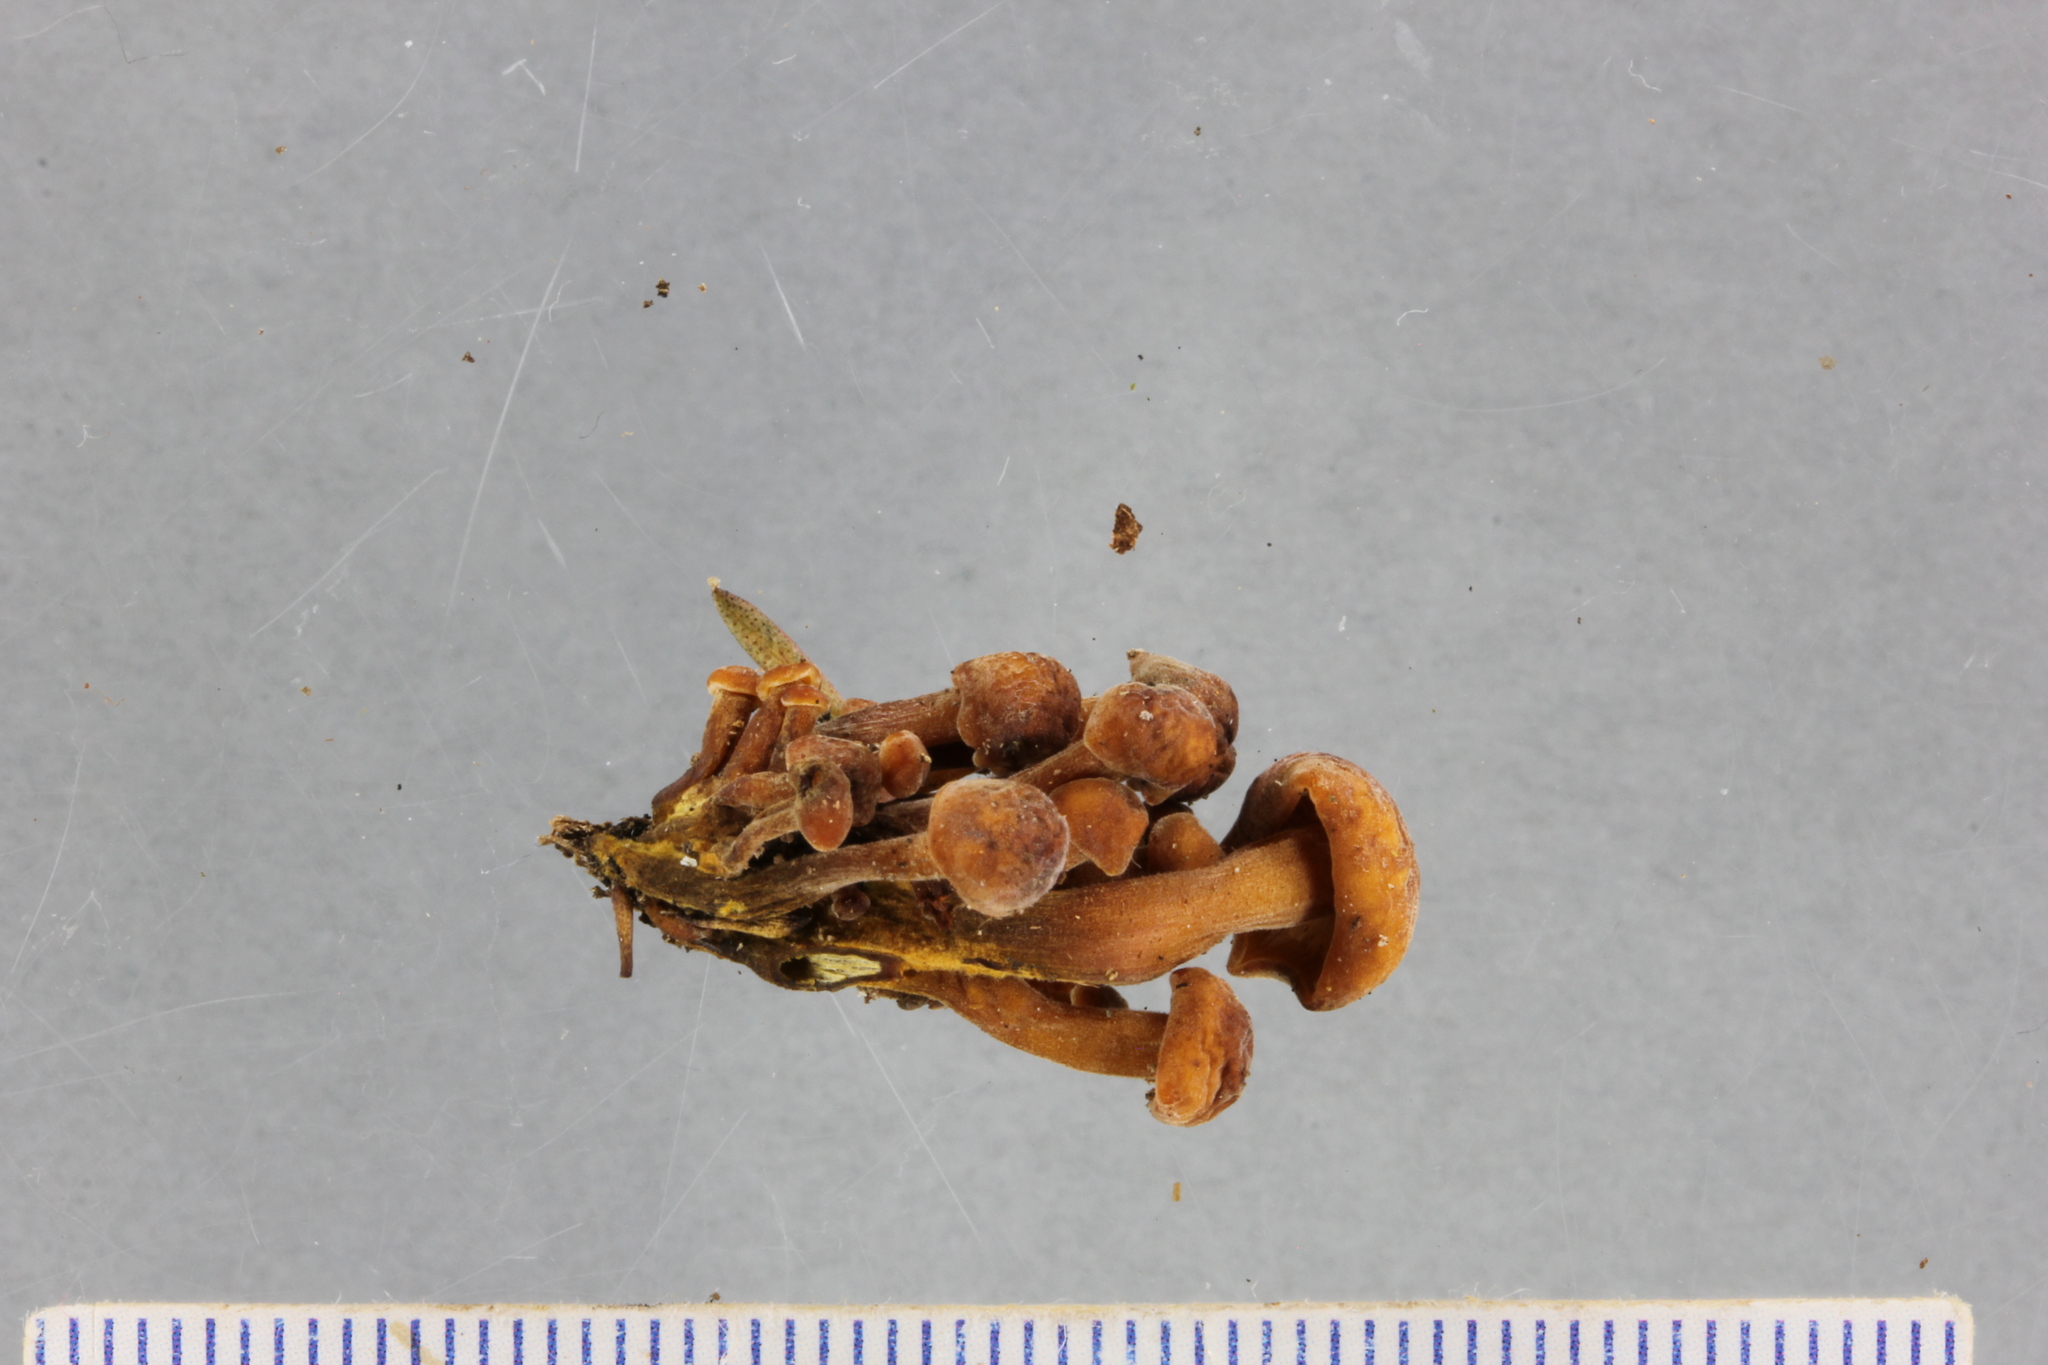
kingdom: Fungi
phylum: Basidiomycota
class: Agaricomycetes
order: Agaricales
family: Physalacriaceae
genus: Flammulina
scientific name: Flammulina velutipes
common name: Velvet shank
